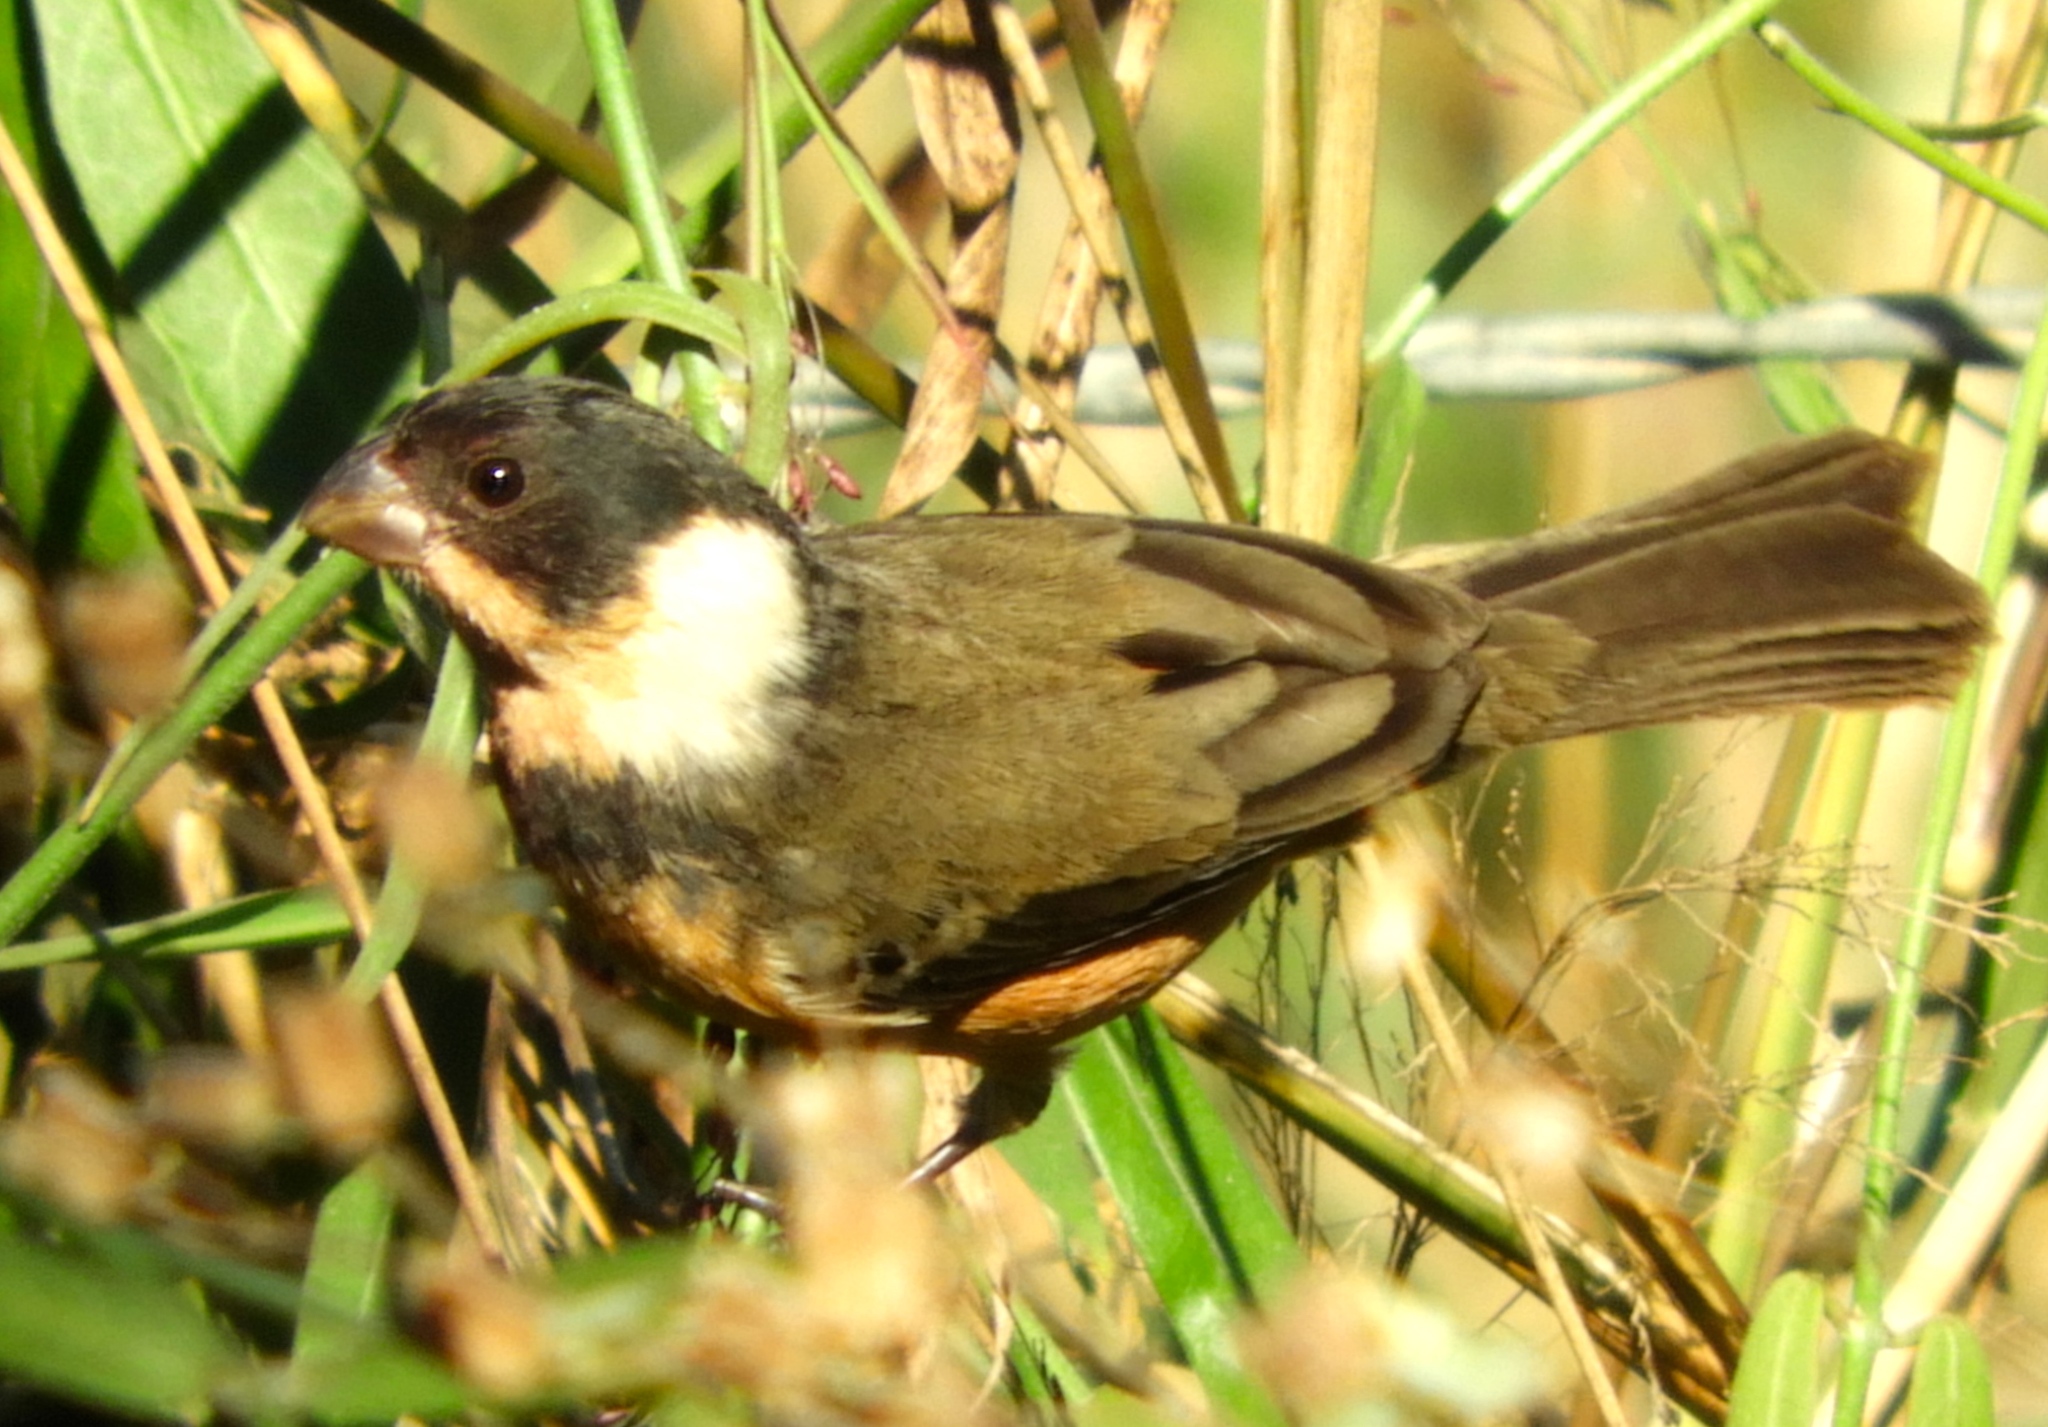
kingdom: Animalia
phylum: Chordata
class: Aves
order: Passeriformes
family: Thraupidae
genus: Sporophila
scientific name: Sporophila torqueola
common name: White-collared seedeater
